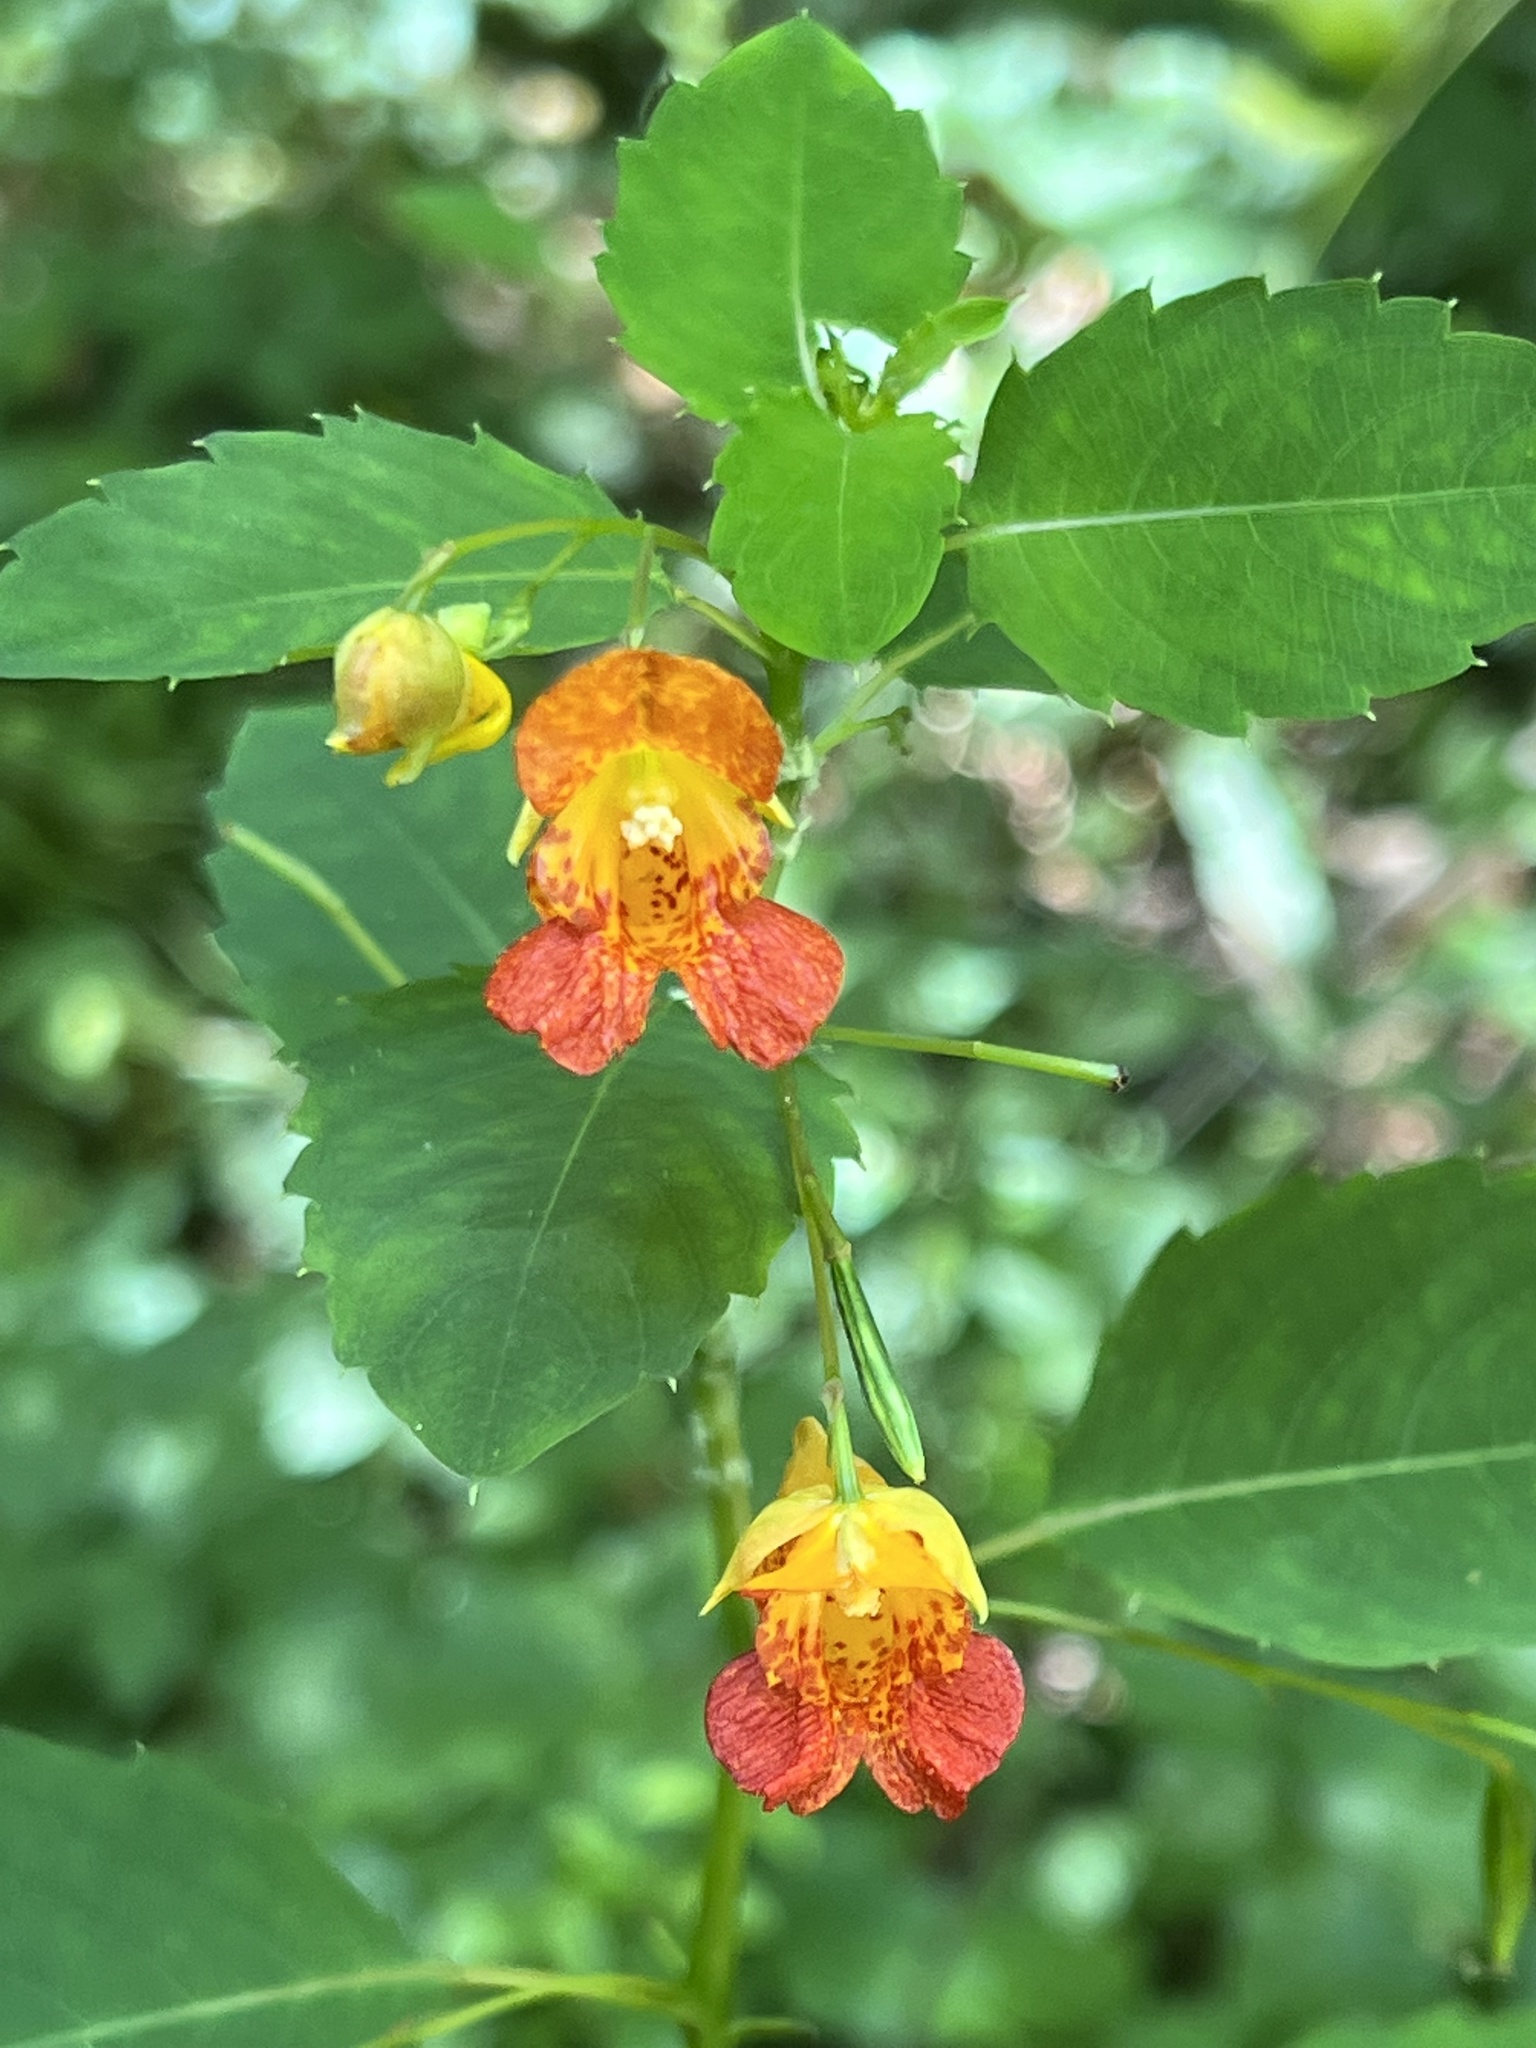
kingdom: Plantae
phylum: Tracheophyta
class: Magnoliopsida
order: Ericales
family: Balsaminaceae
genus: Impatiens
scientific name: Impatiens capensis
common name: Orange balsam
